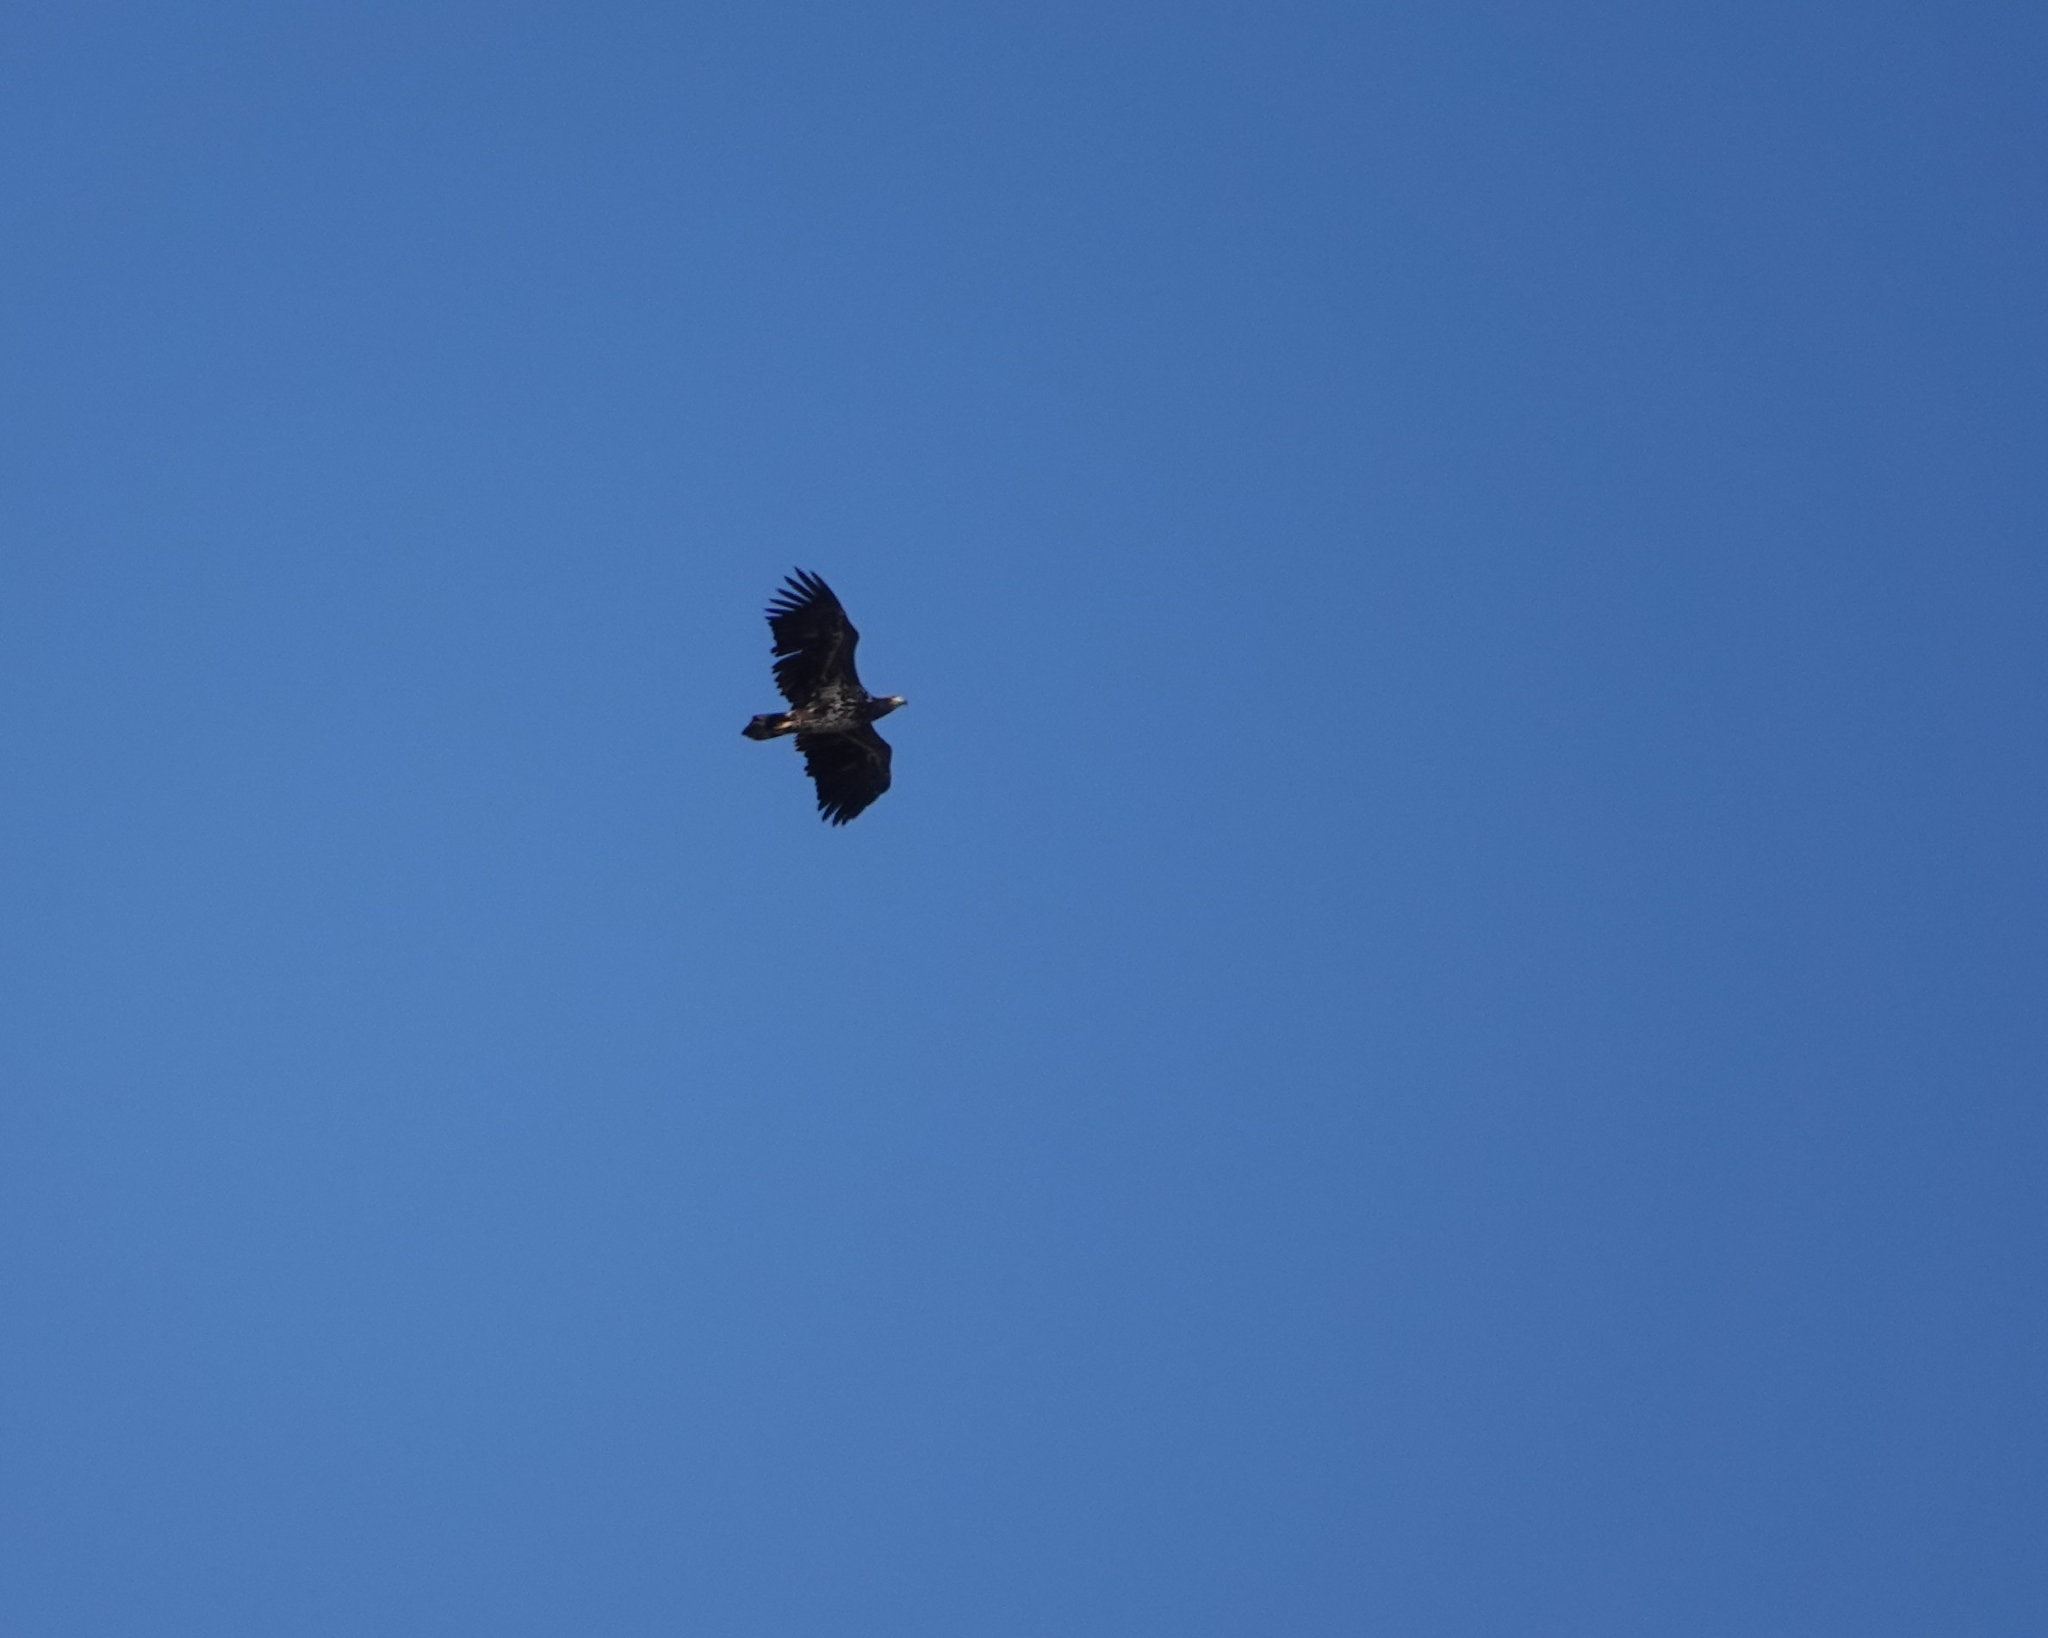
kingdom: Animalia
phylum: Chordata
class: Aves
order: Accipitriformes
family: Accipitridae
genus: Haliaeetus
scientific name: Haliaeetus albicilla
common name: White-tailed eagle
